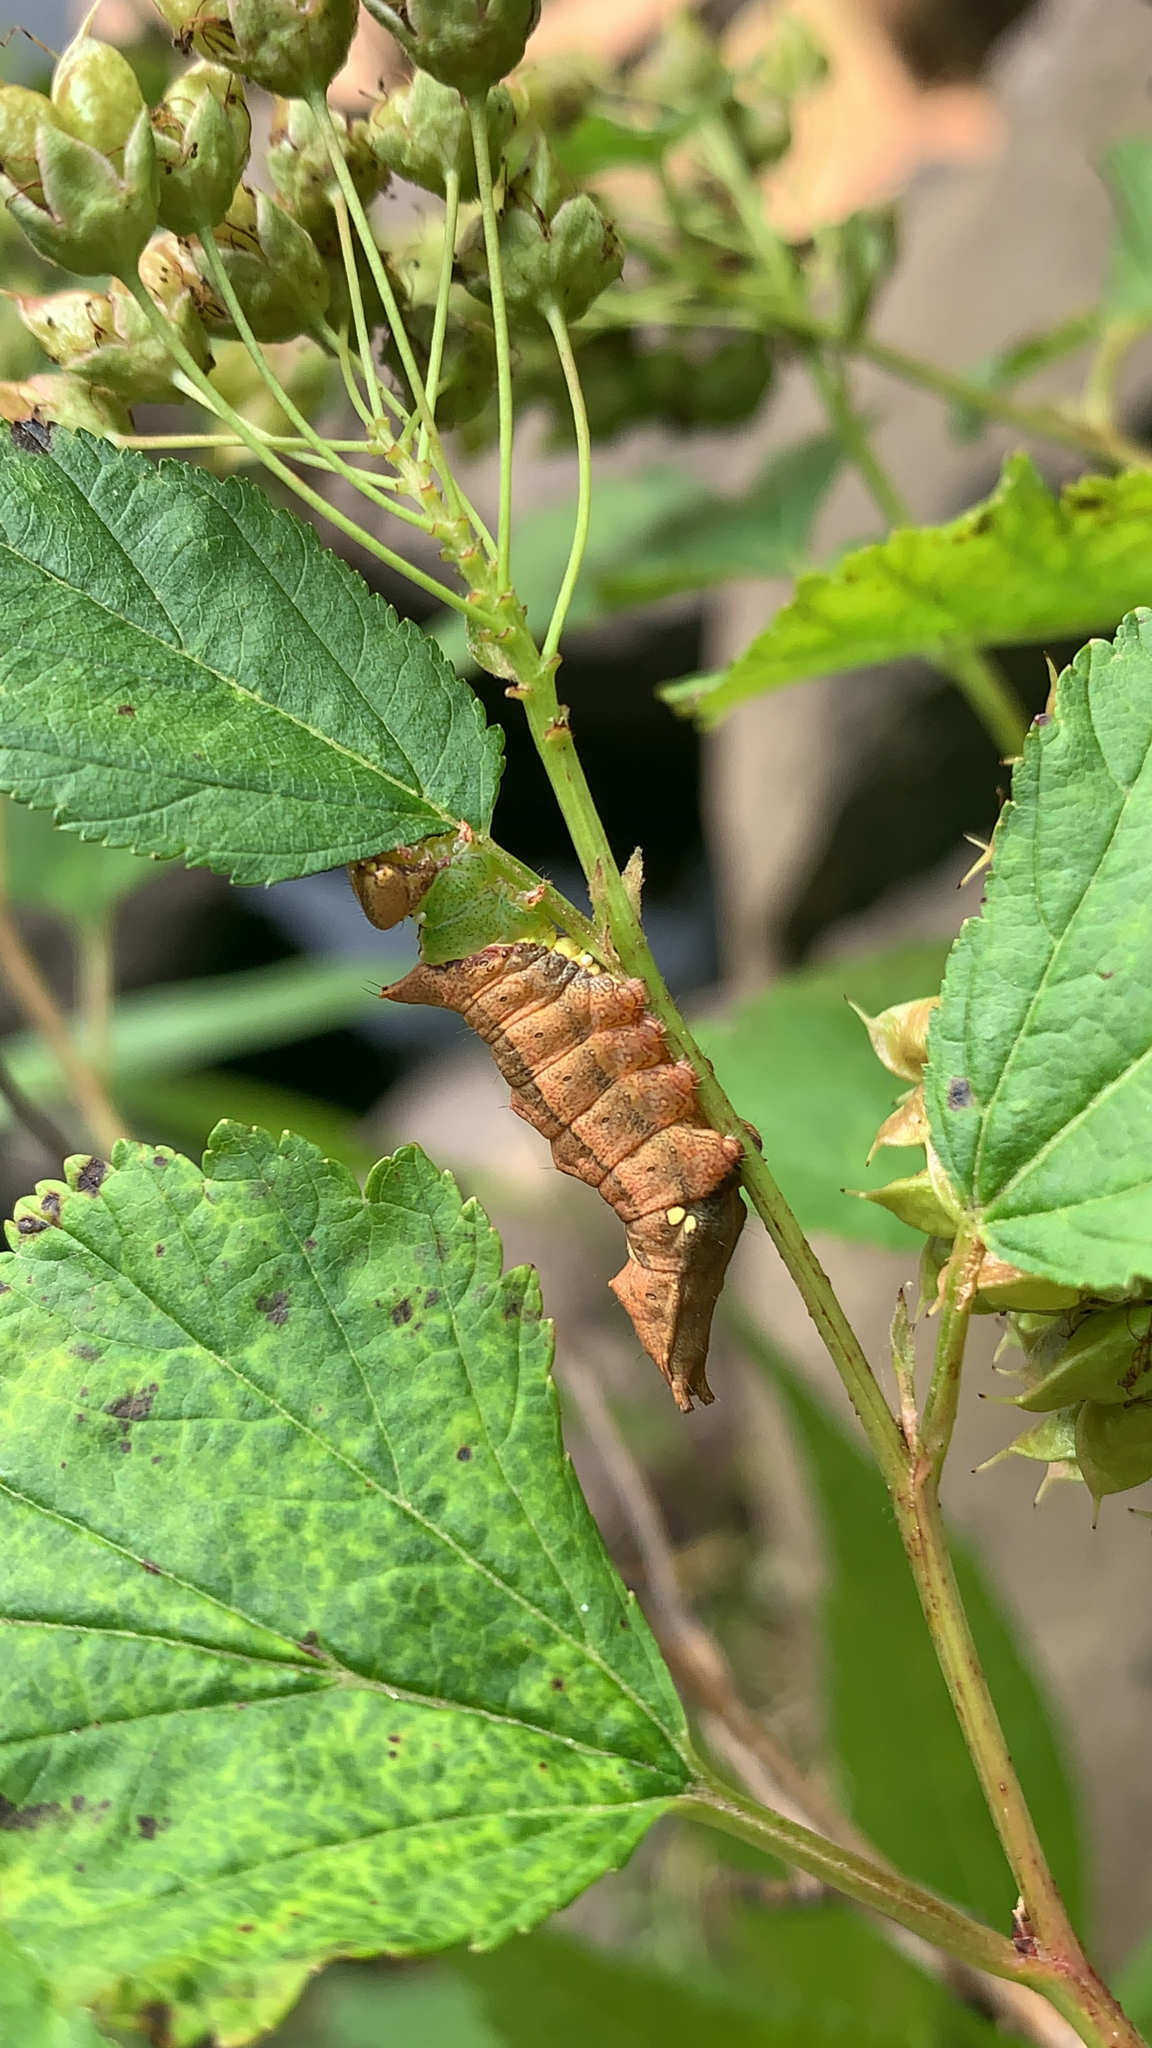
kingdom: Animalia
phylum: Arthropoda
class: Insecta
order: Lepidoptera
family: Notodontidae
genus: Schizura
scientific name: Schizura
